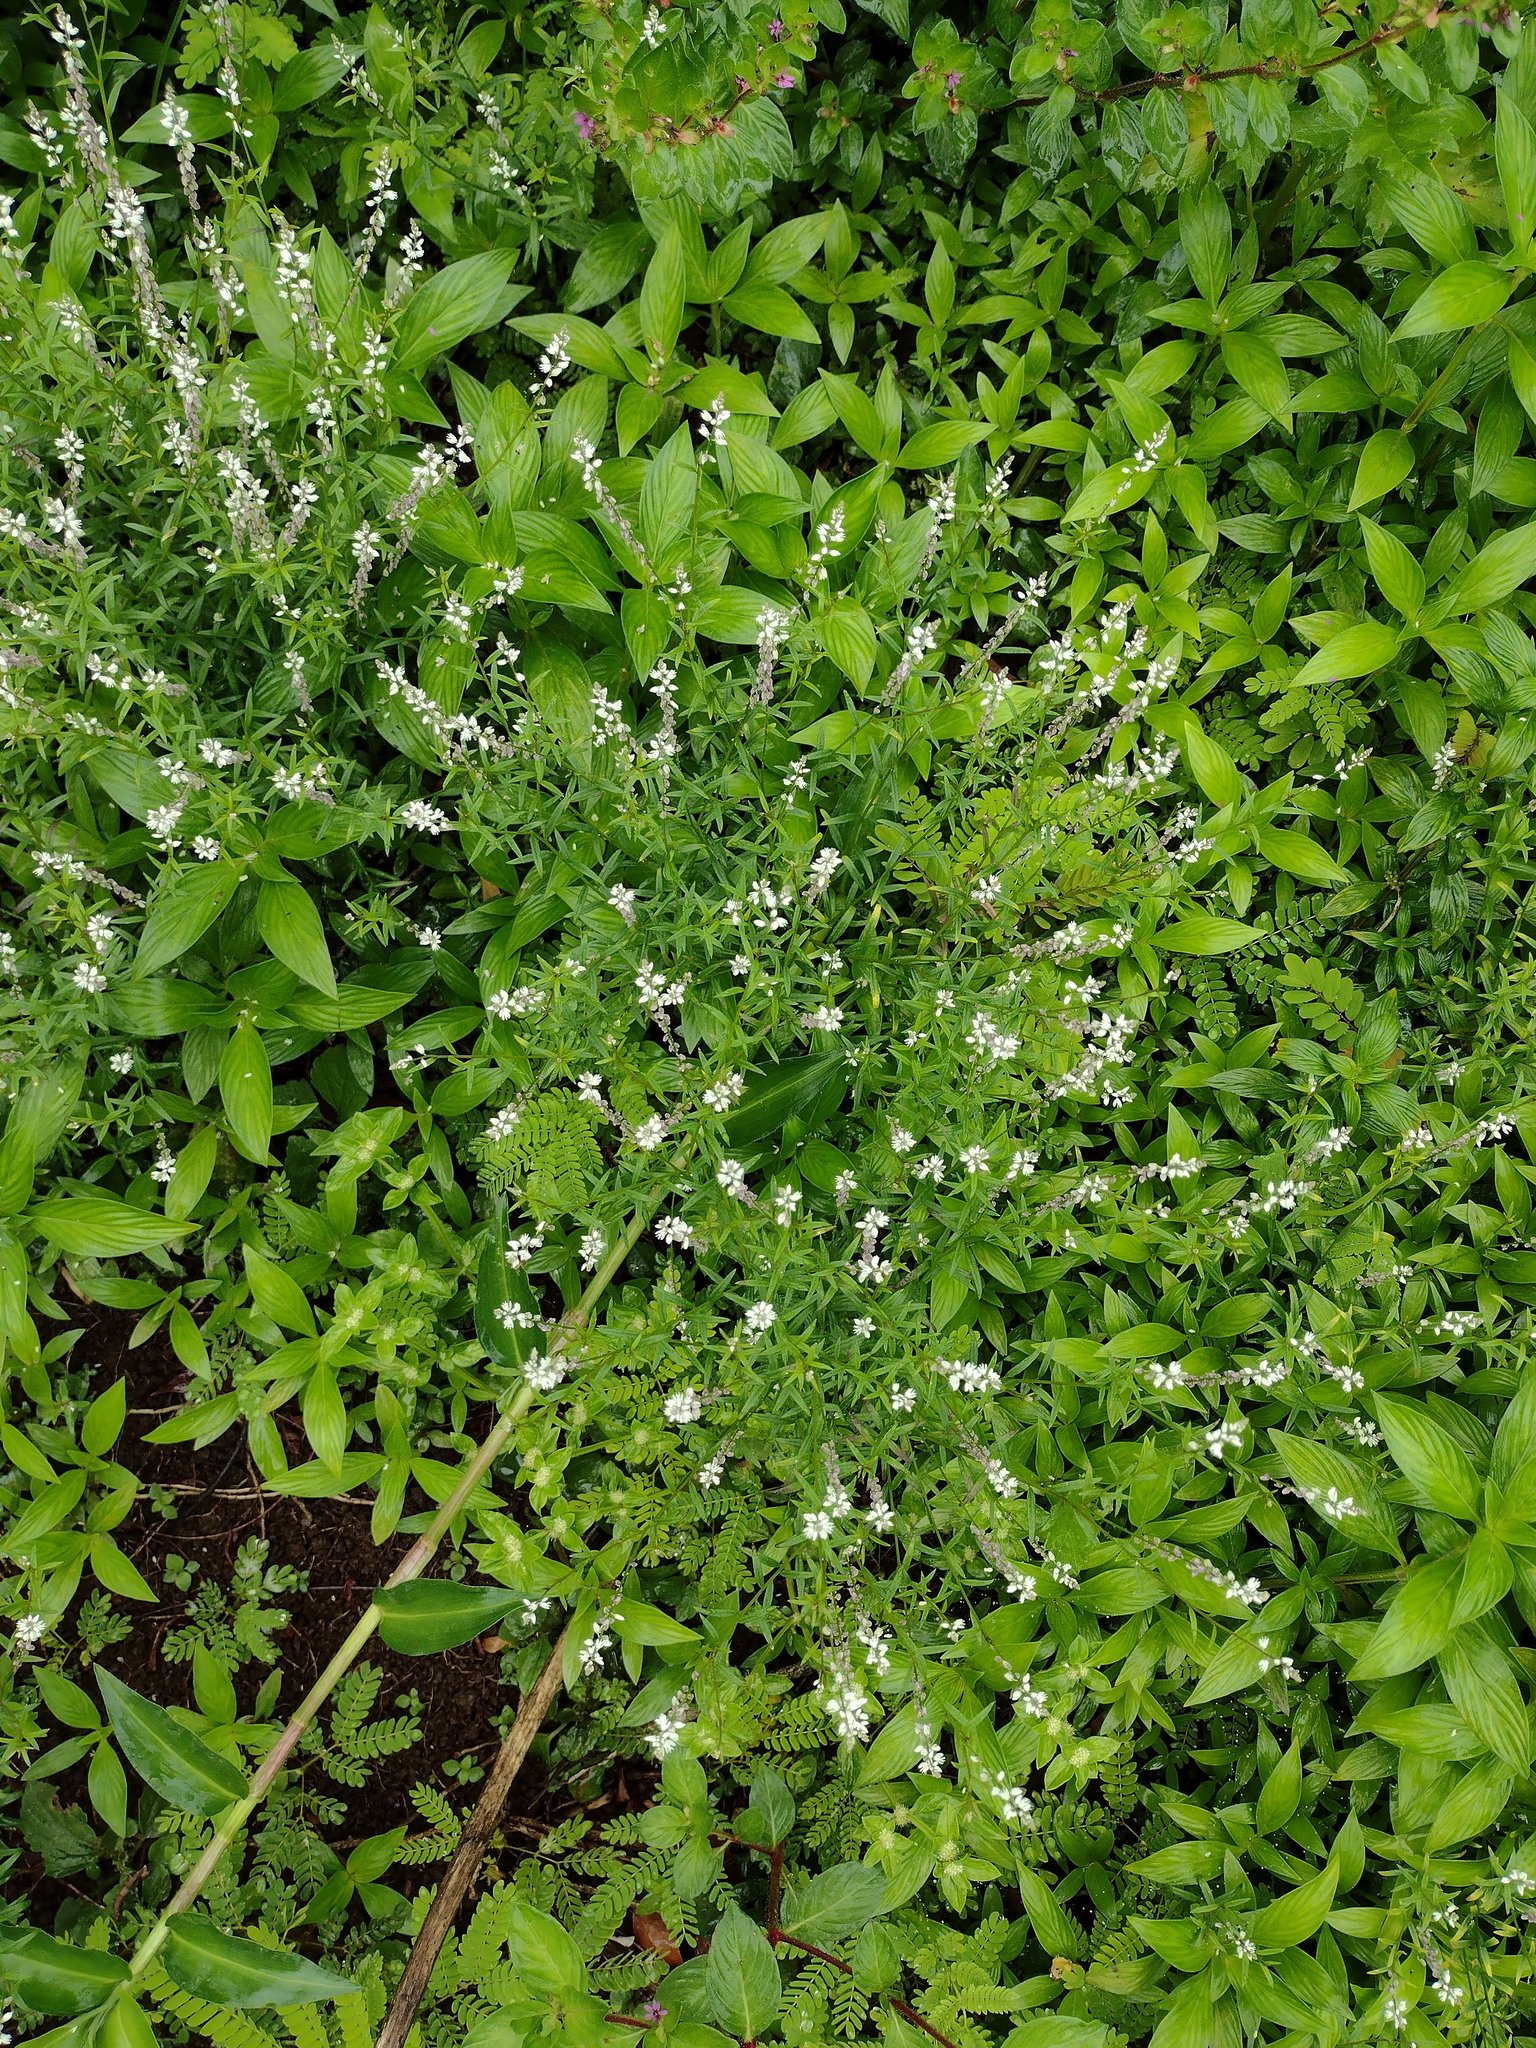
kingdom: Plantae
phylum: Tracheophyta
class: Magnoliopsida
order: Fabales
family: Polygalaceae
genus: Polygala
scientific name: Polygala paniculata
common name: Orosne
